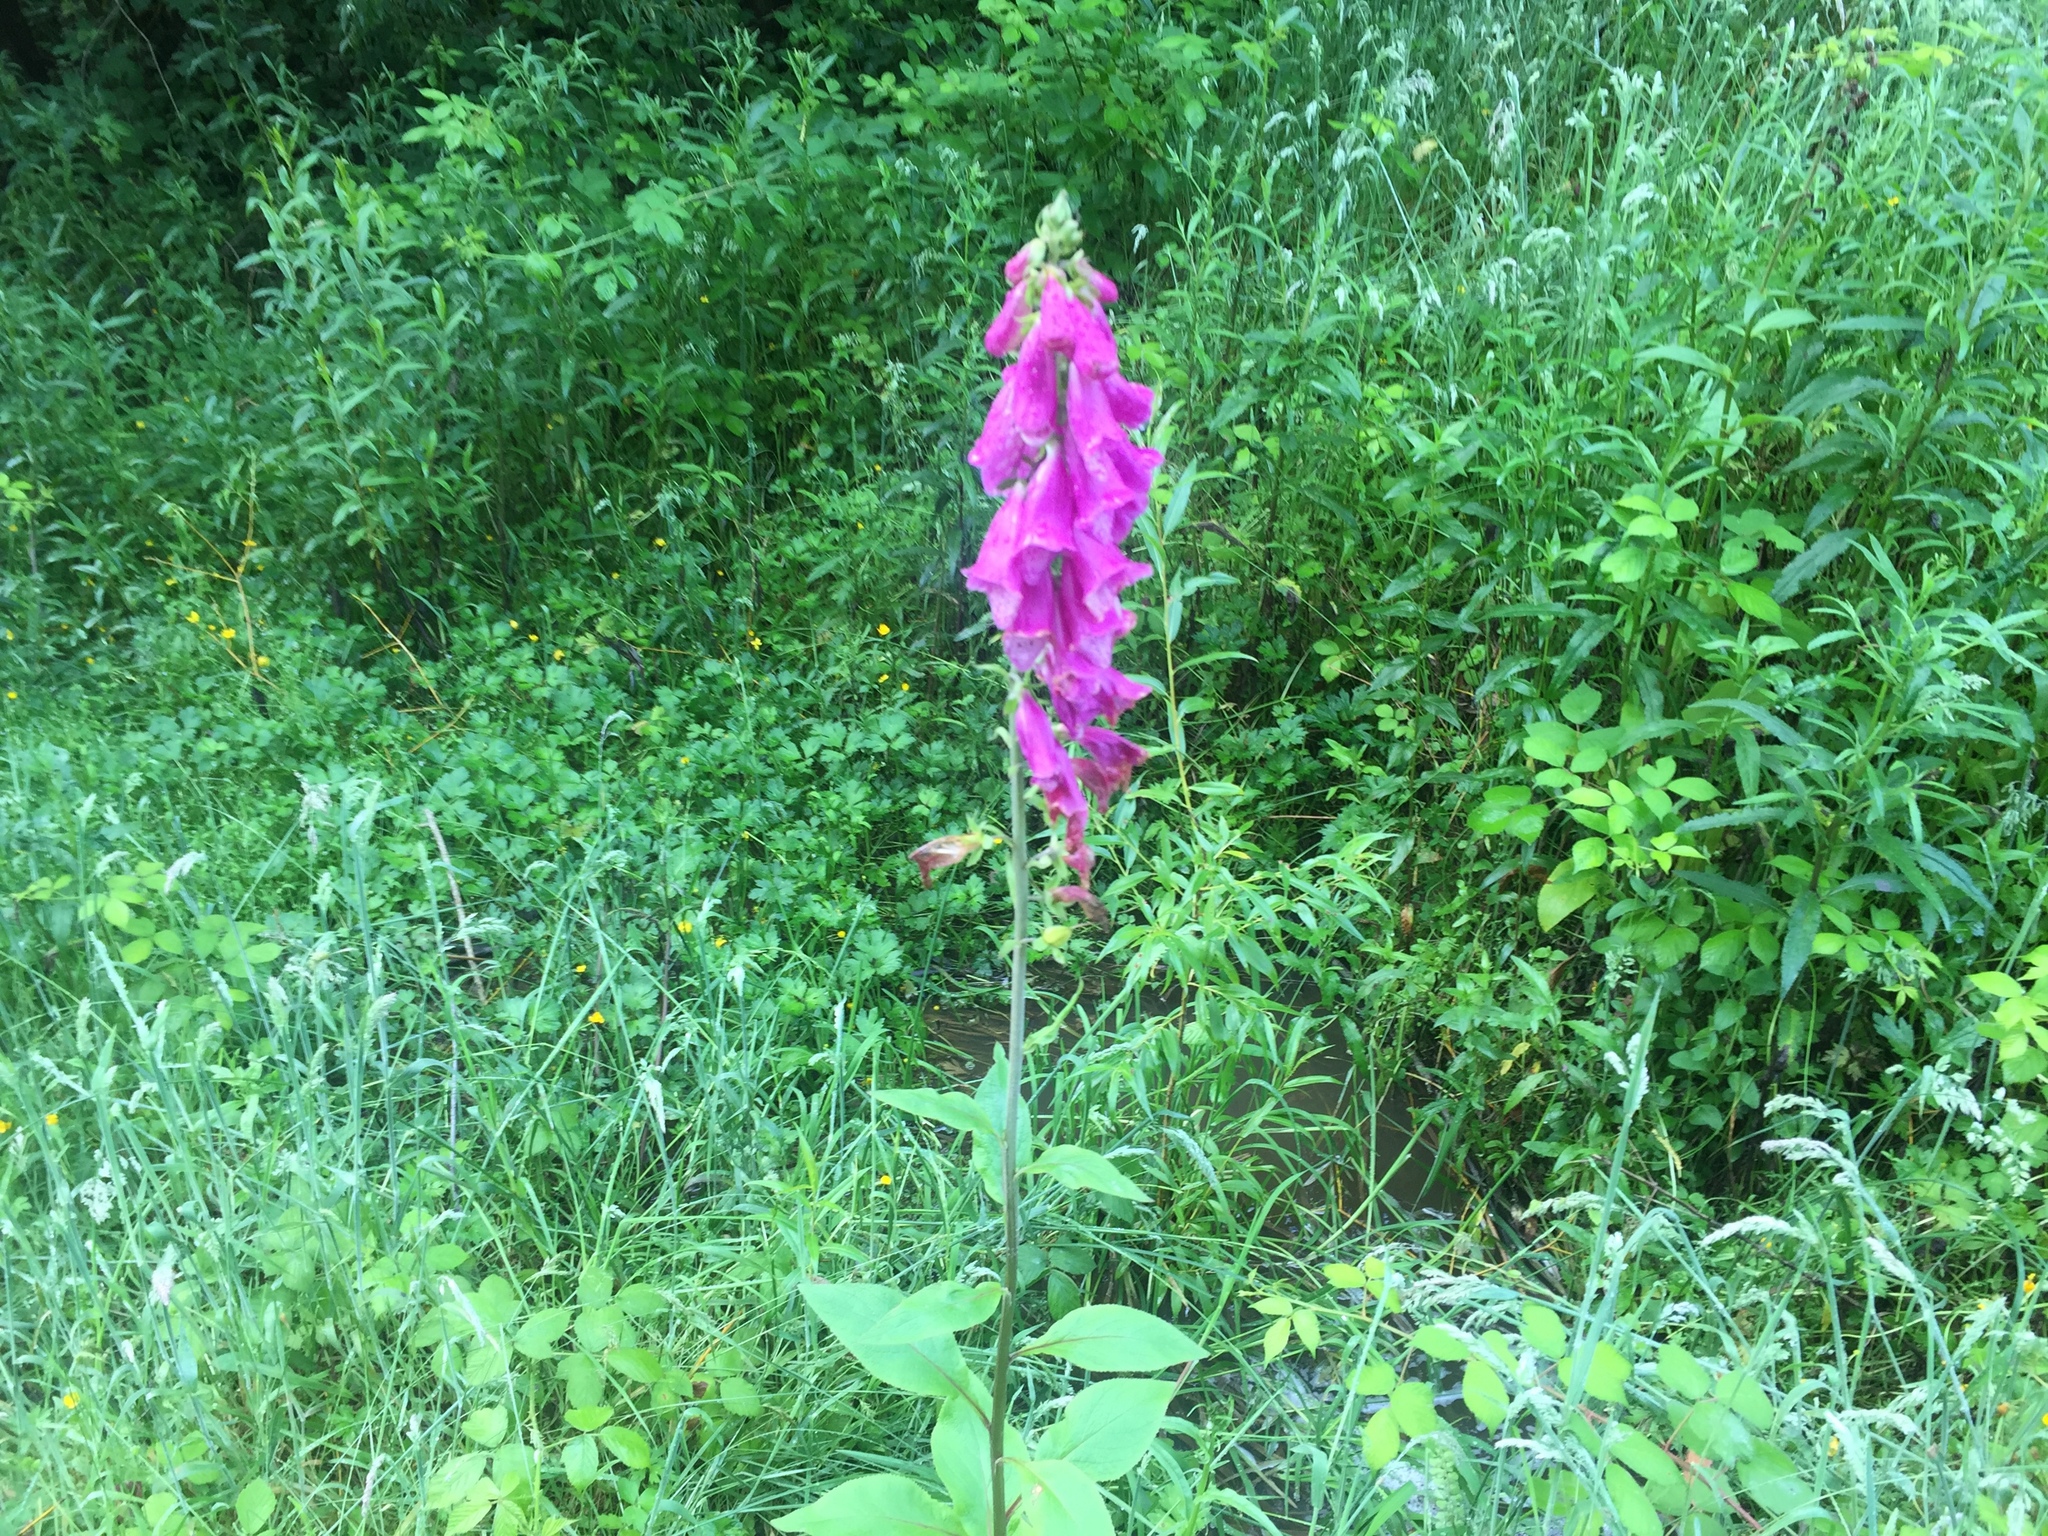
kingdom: Plantae
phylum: Tracheophyta
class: Magnoliopsida
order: Lamiales
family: Plantaginaceae
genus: Digitalis
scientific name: Digitalis purpurea
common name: Foxglove
